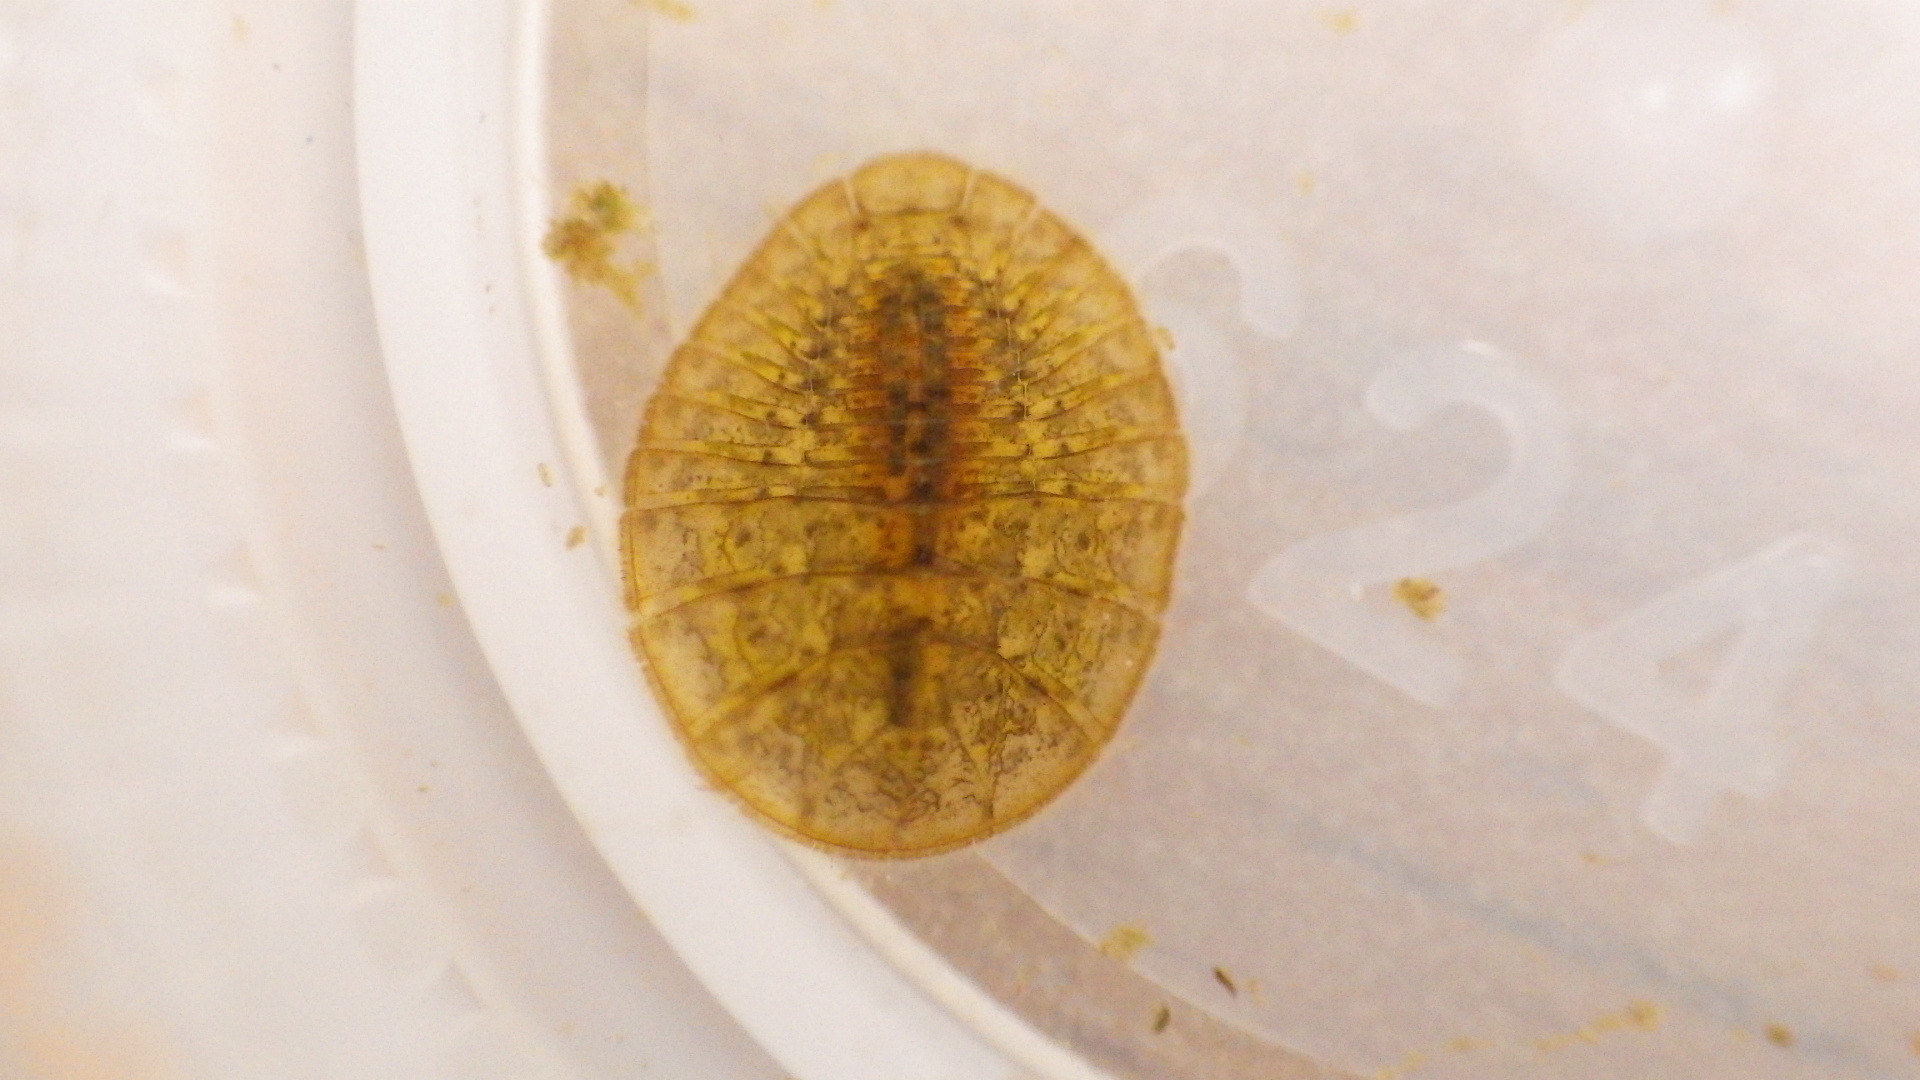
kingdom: Animalia
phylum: Arthropoda
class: Insecta
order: Coleoptera
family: Psephenidae
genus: Psephenus
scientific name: Psephenus herricki
